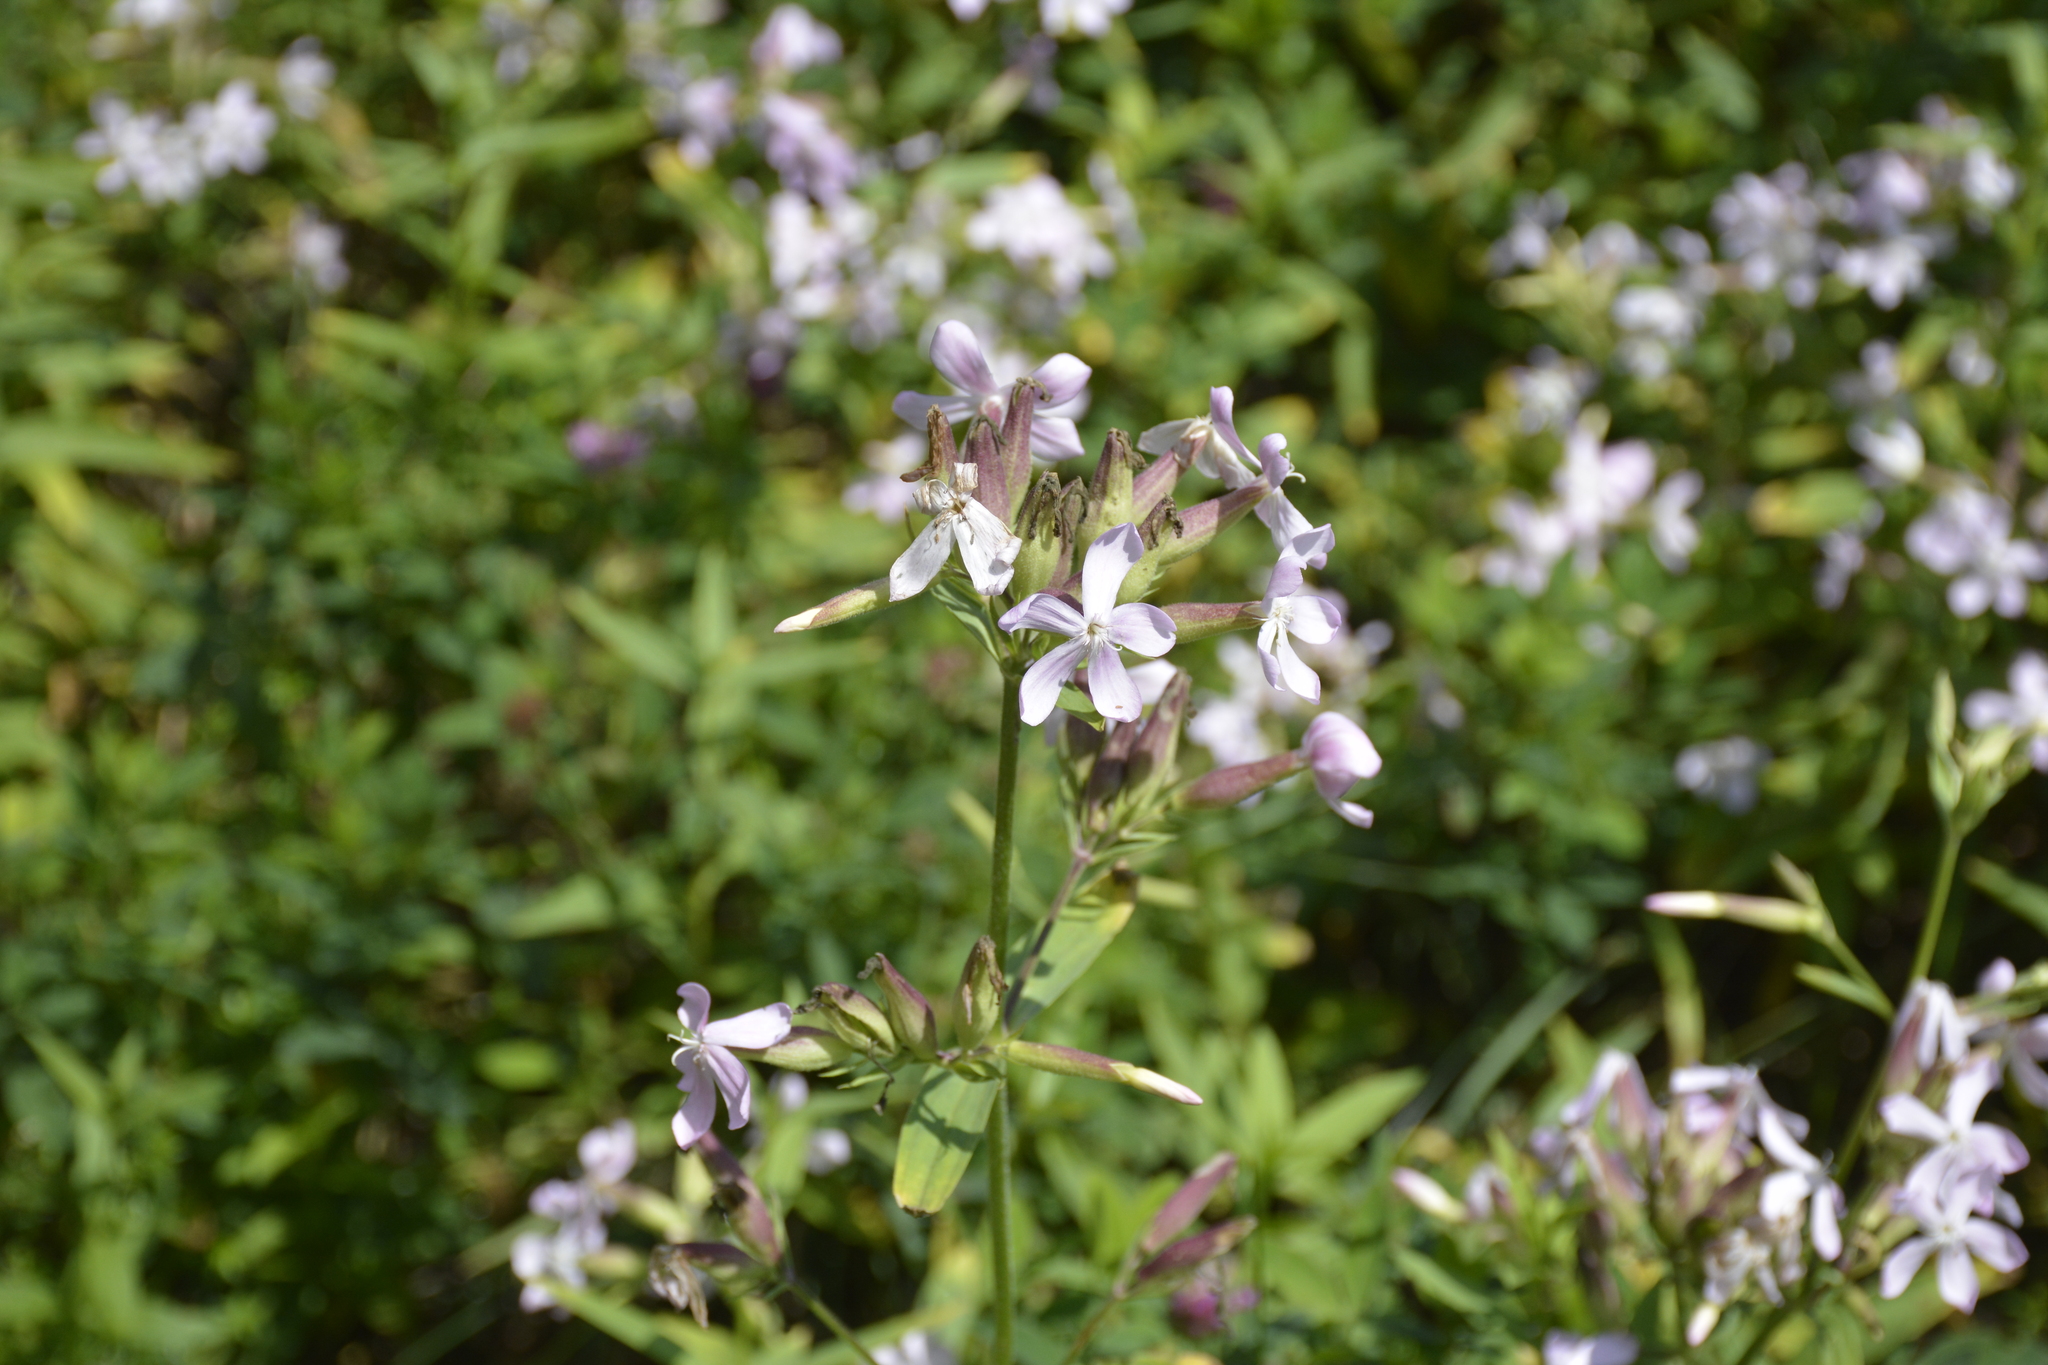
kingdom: Plantae
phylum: Tracheophyta
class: Magnoliopsida
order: Caryophyllales
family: Caryophyllaceae
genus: Saponaria
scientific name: Saponaria officinalis
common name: Soapwort
